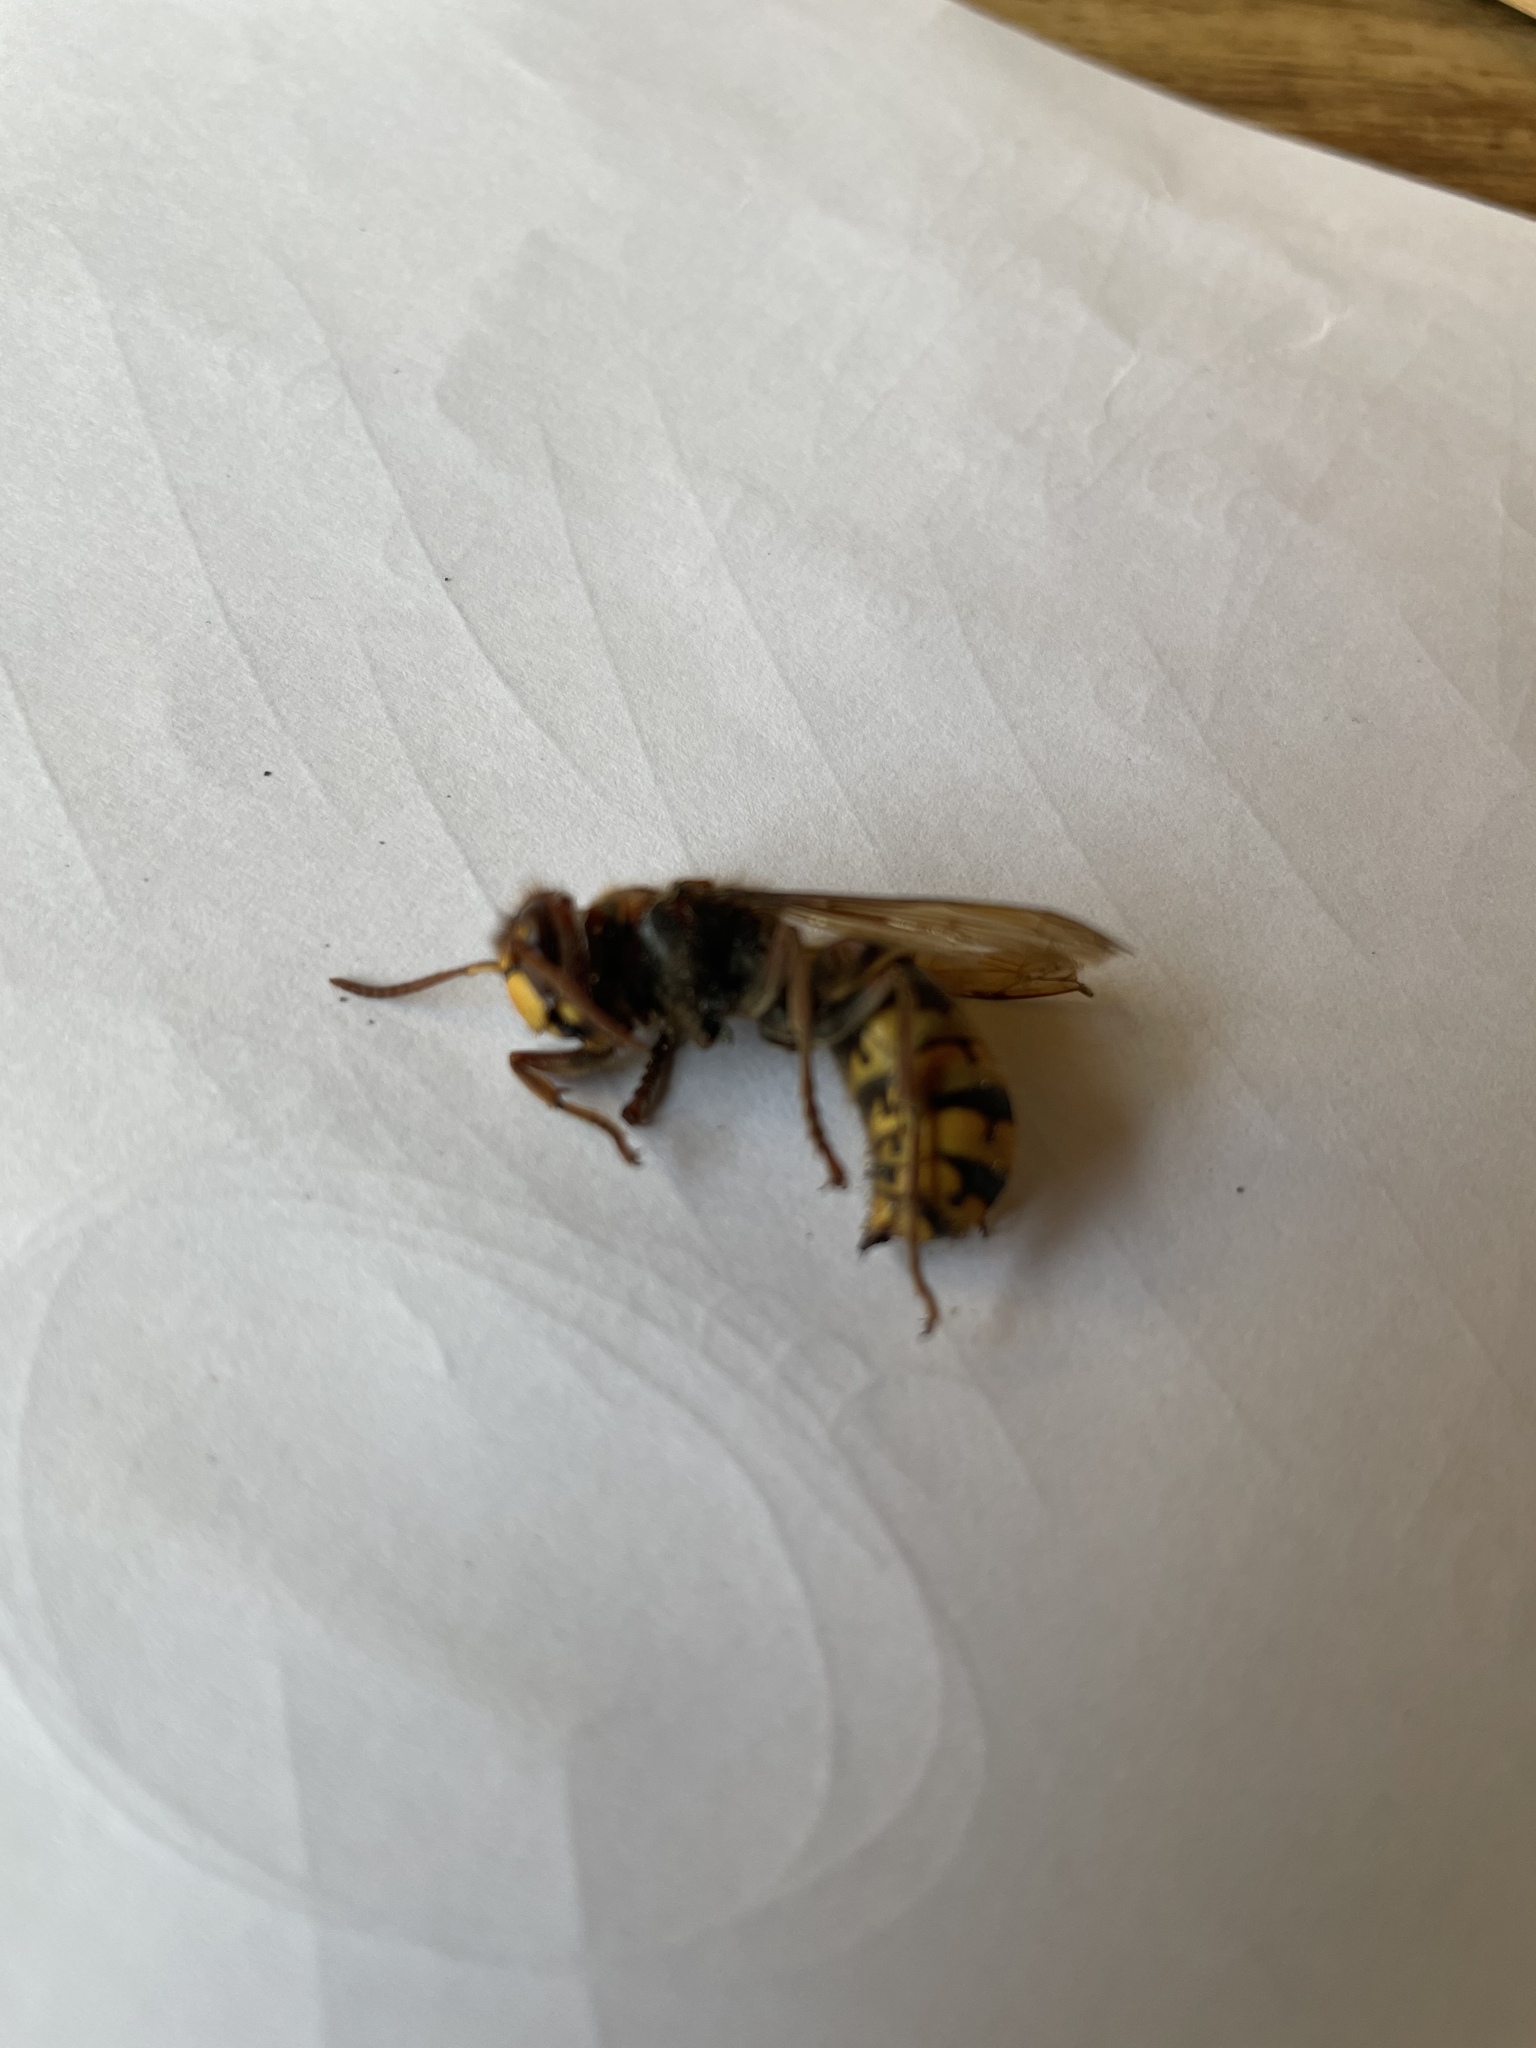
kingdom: Animalia
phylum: Arthropoda
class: Insecta
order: Hymenoptera
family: Vespidae
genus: Vespa
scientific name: Vespa crabro
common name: Hornet
